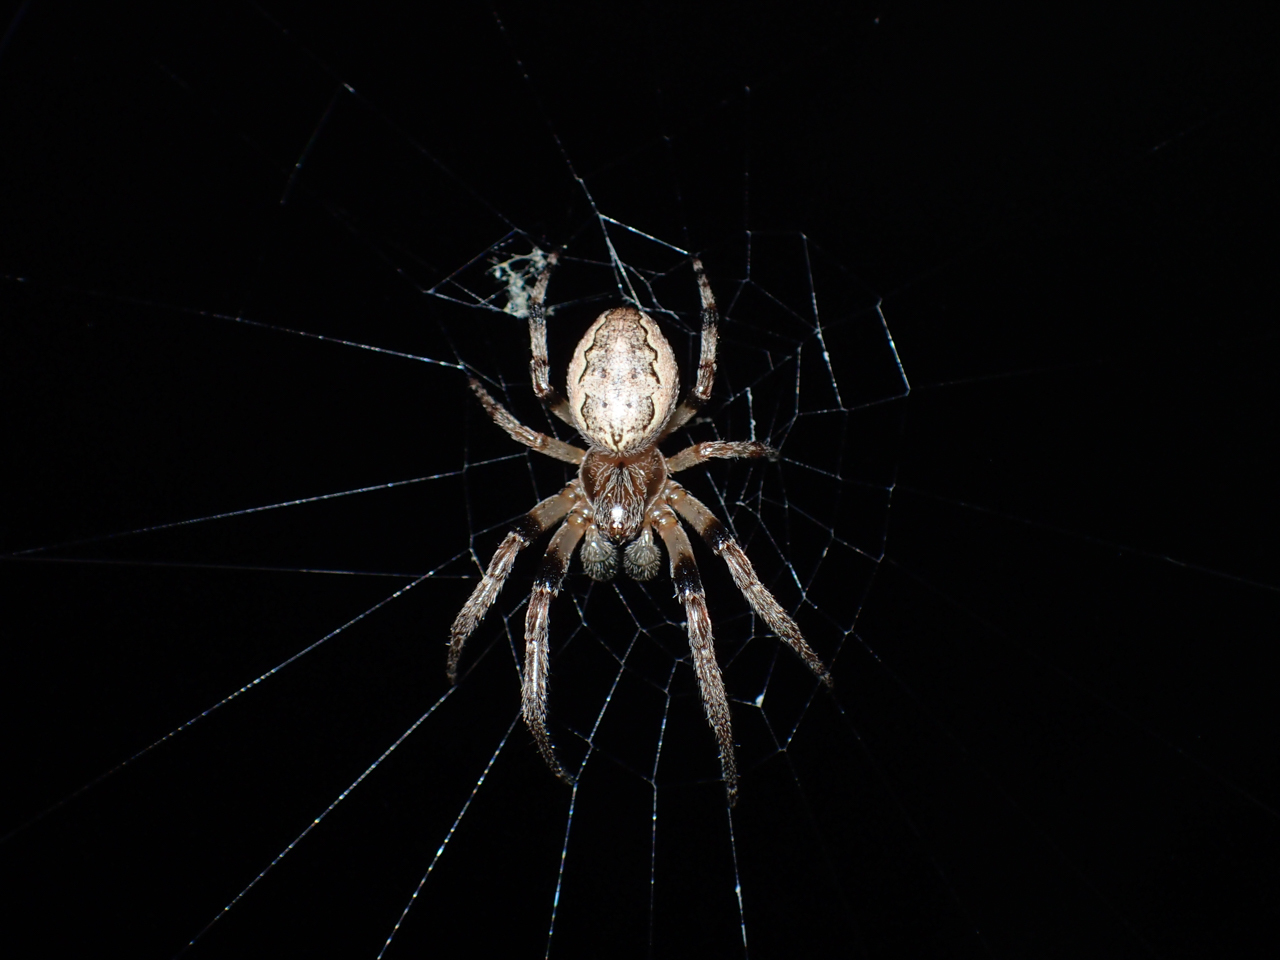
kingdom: Animalia
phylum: Arthropoda
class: Arachnida
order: Araneae
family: Araneidae
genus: Larinioides
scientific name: Larinioides cornutus
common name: Furrow orbweaver
